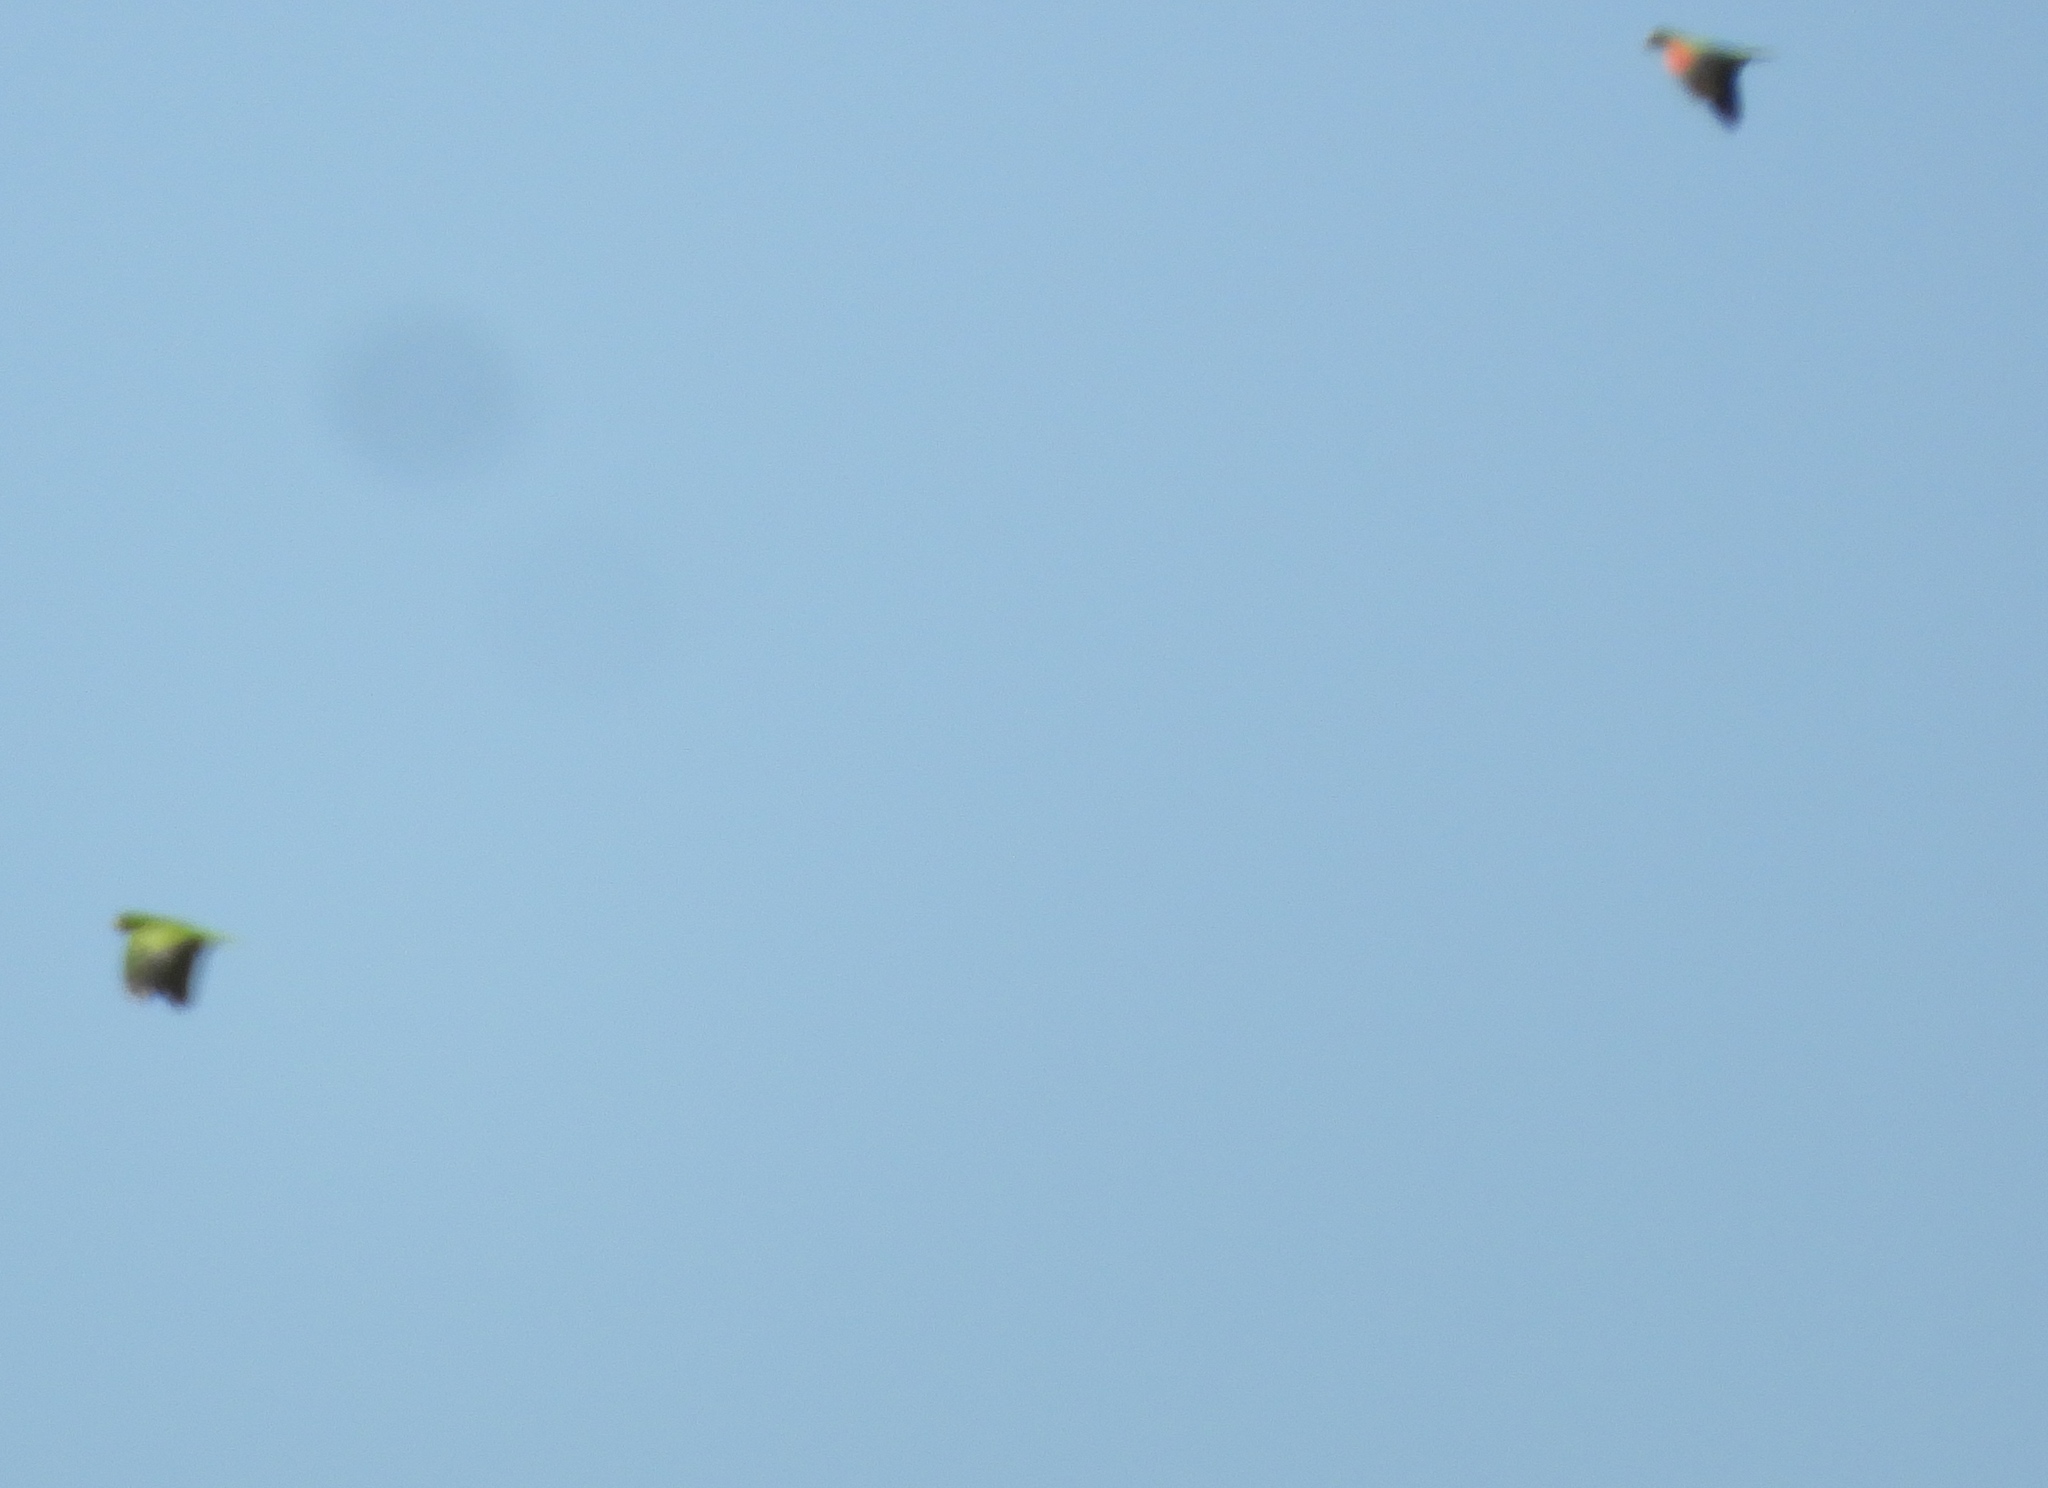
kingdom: Animalia
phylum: Chordata
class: Aves
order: Psittaciformes
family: Psittacidae
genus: Amazona
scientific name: Amazona albifrons
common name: White-fronted amazon
